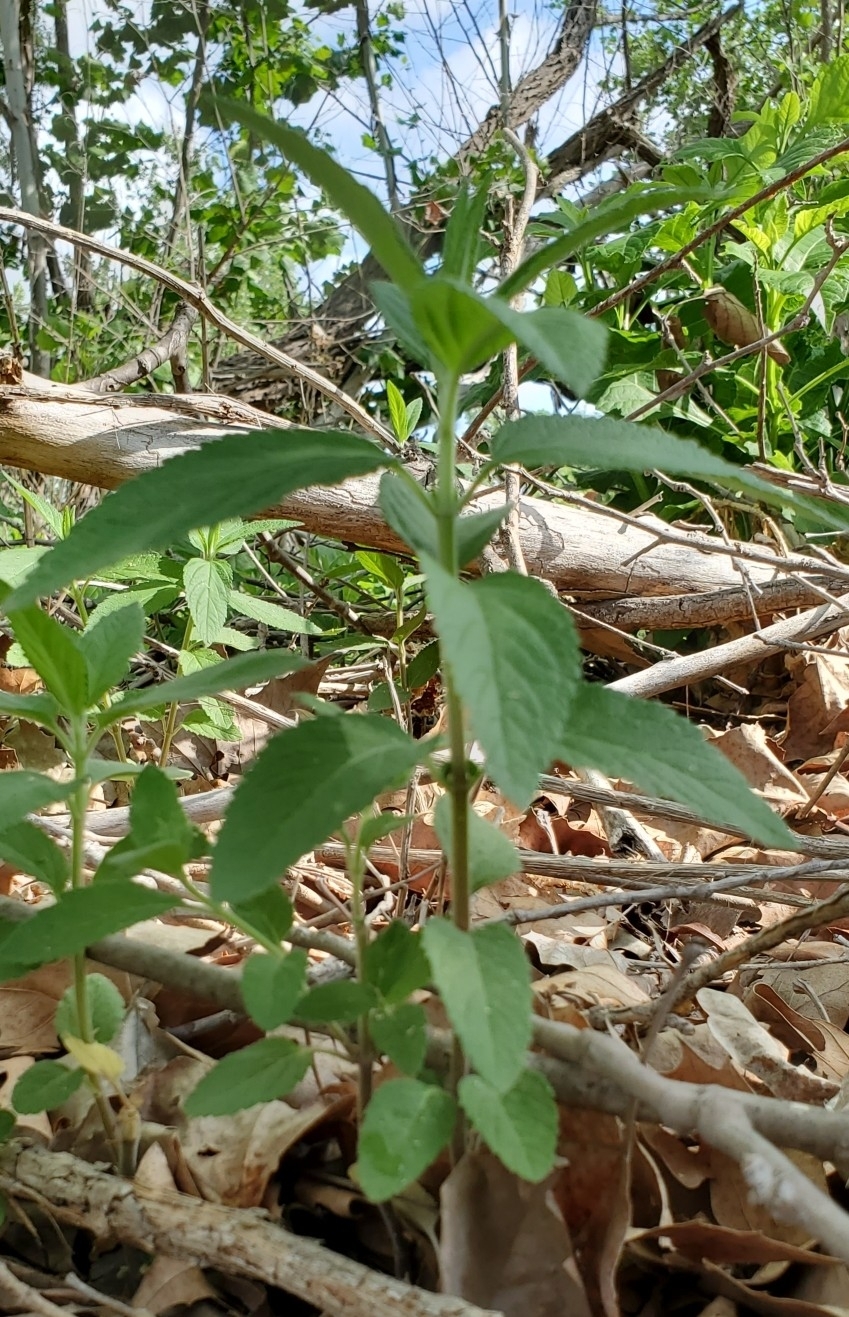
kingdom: Plantae
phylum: Tracheophyta
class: Magnoliopsida
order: Lamiales
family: Lamiaceae
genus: Teucrium
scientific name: Teucrium canadense
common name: American germander
